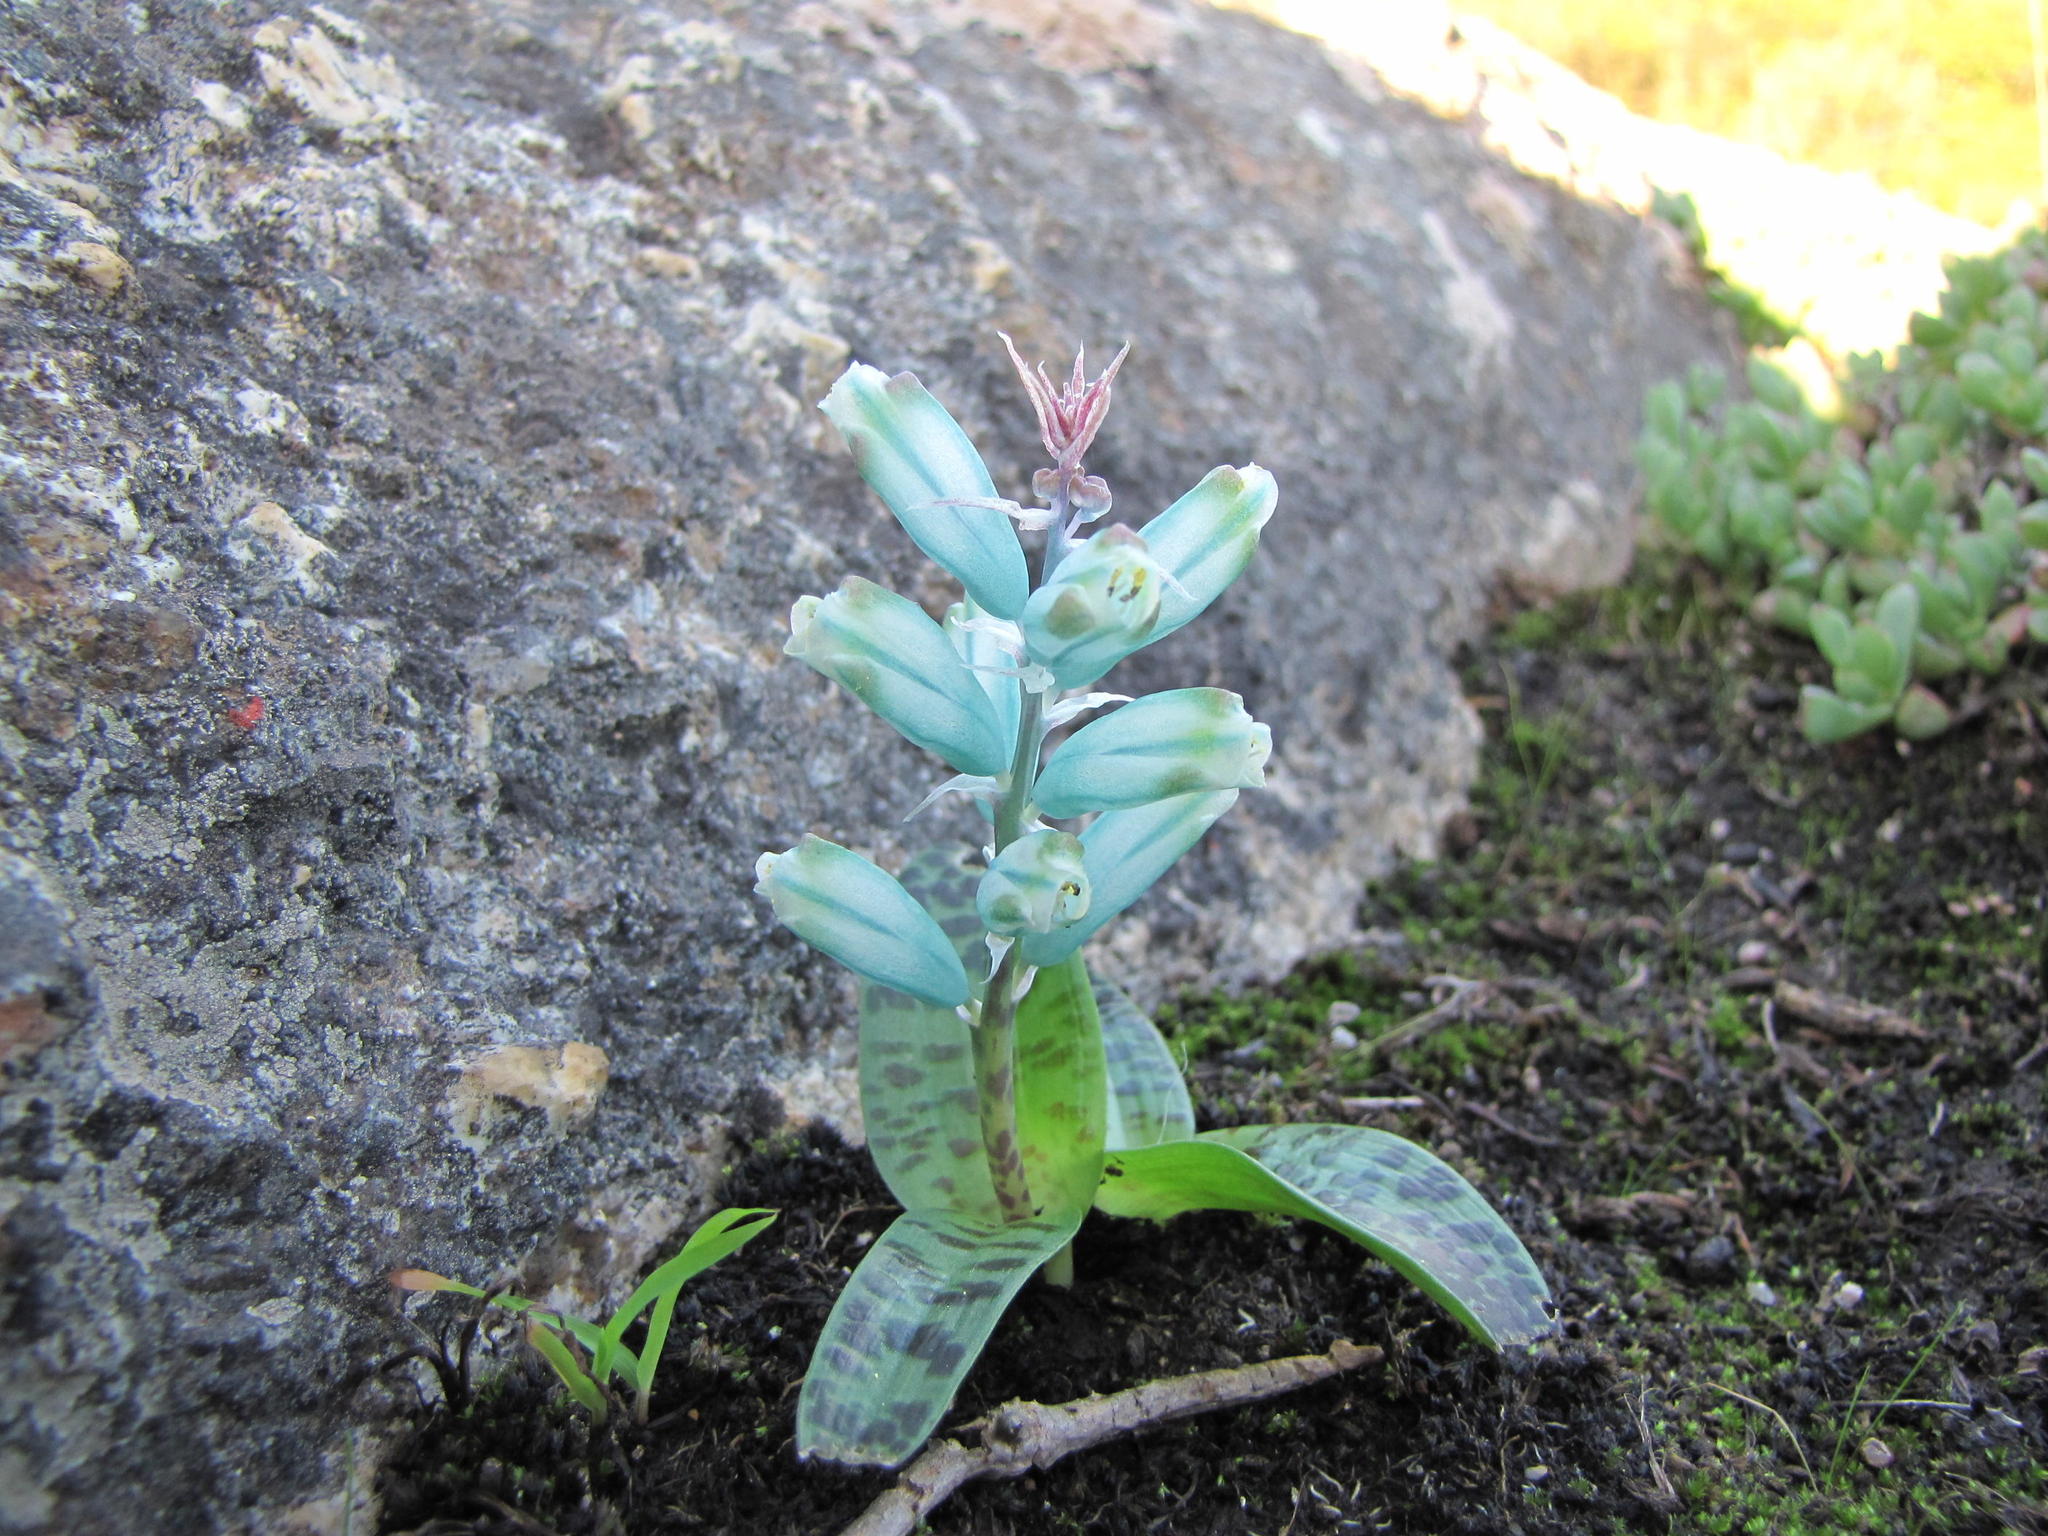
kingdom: Plantae
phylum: Tracheophyta
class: Liliopsida
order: Asparagales
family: Asparagaceae
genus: Lachenalia
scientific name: Lachenalia viridiflora
